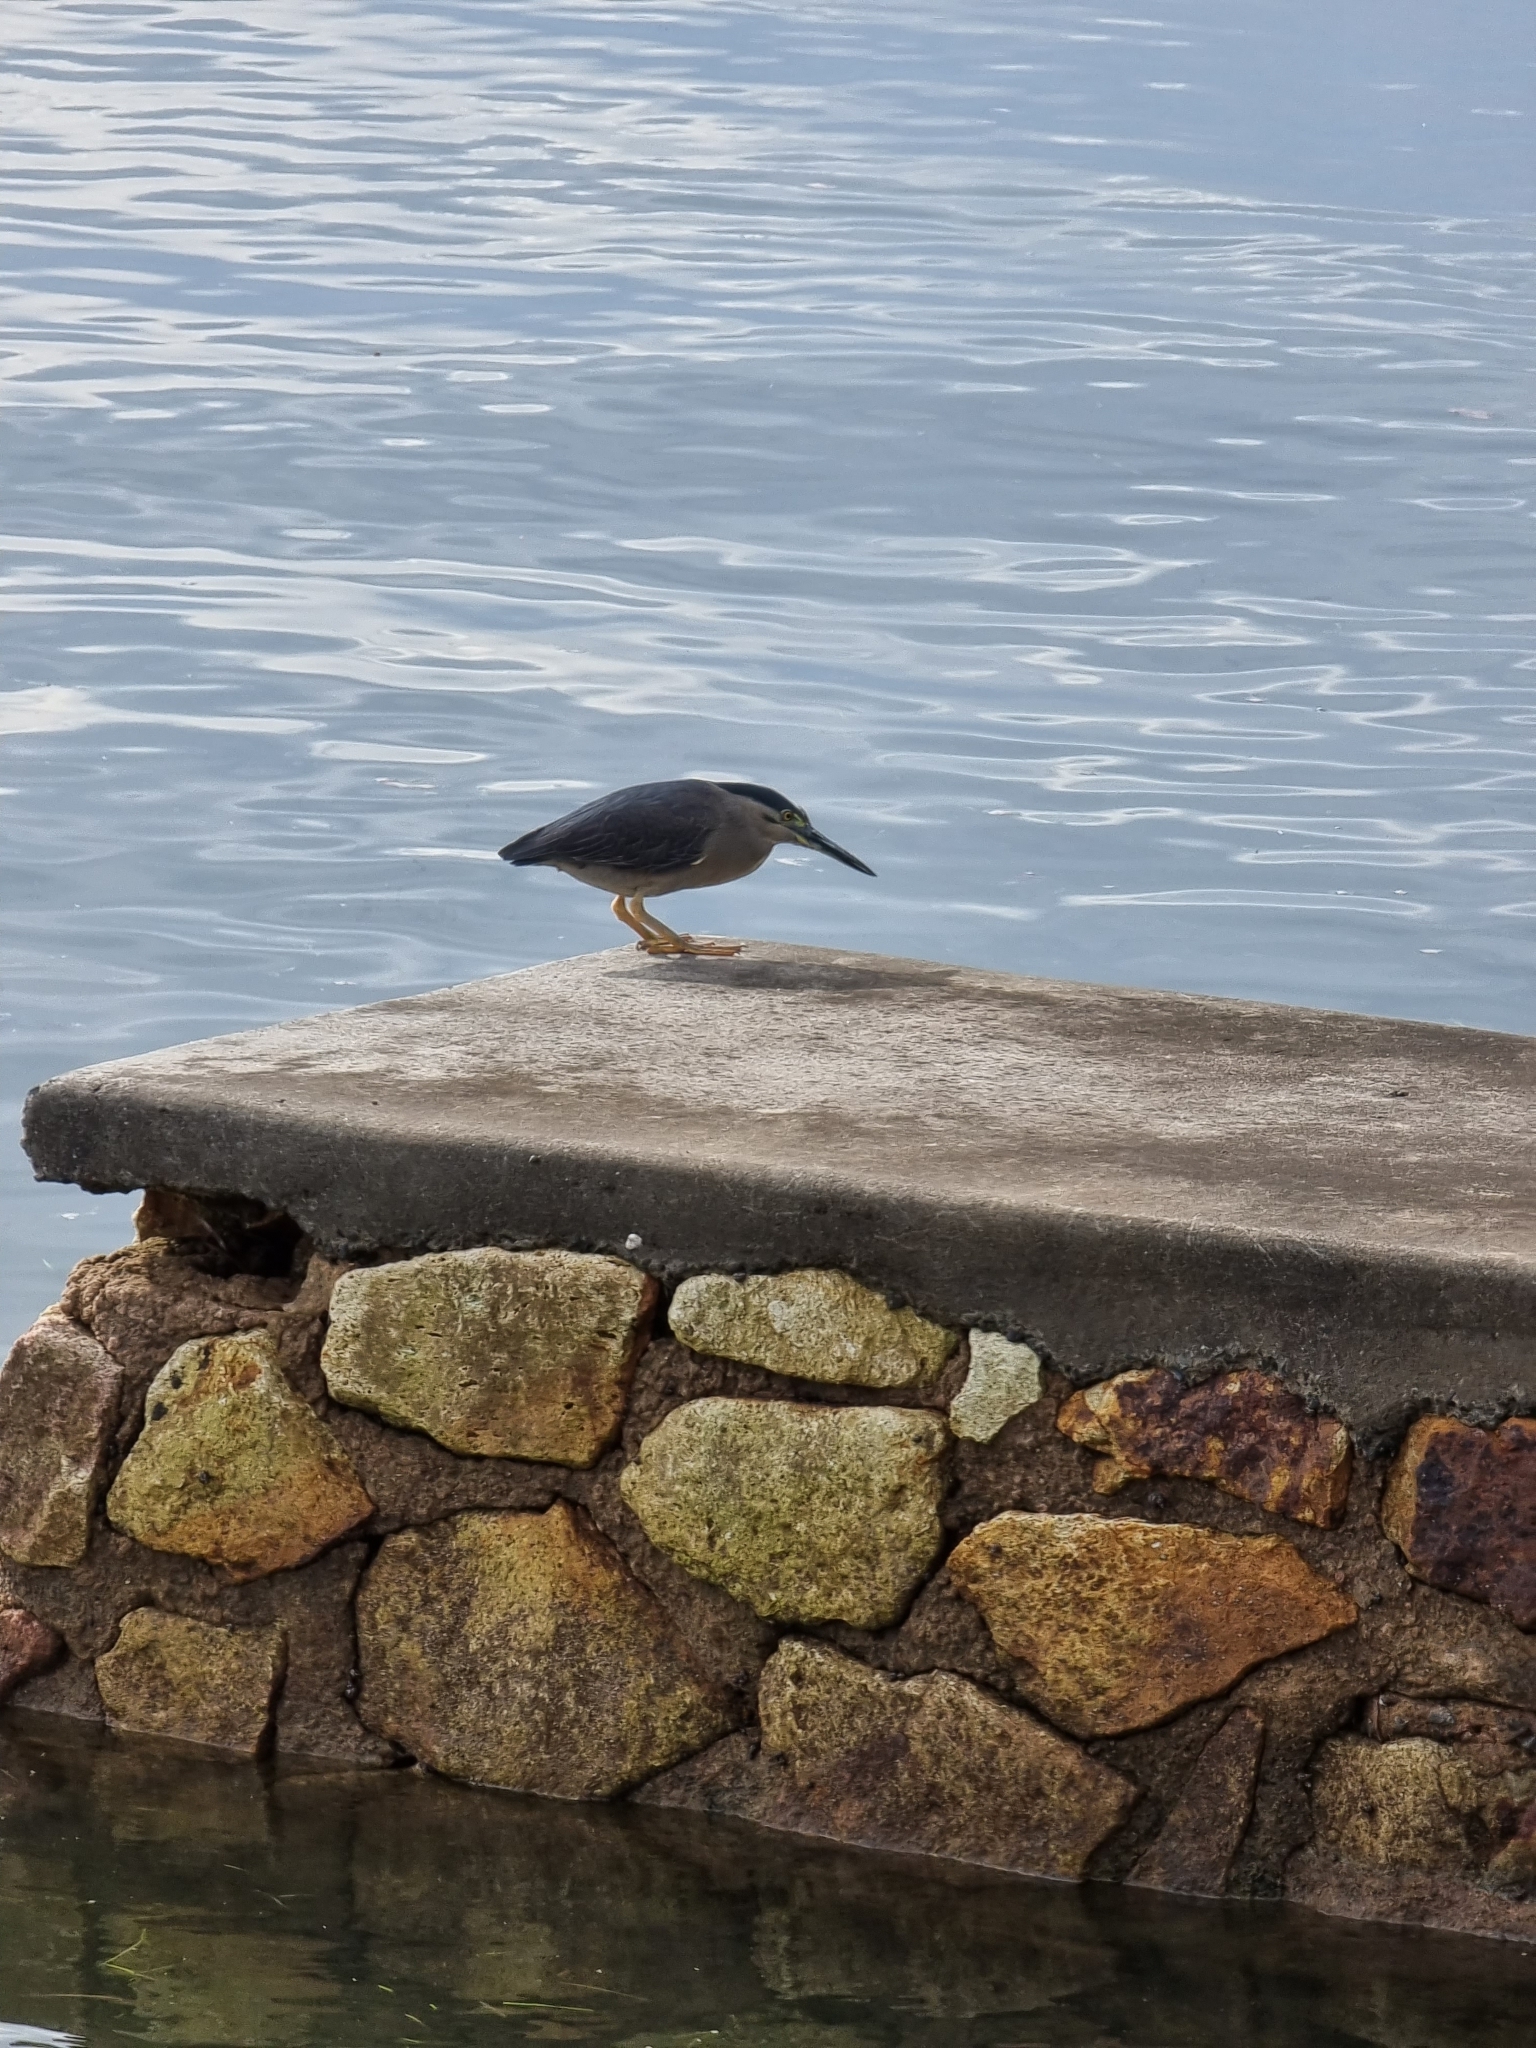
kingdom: Animalia
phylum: Chordata
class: Aves
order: Pelecaniformes
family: Ardeidae
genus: Butorides
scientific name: Butorides striata
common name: Striated heron
